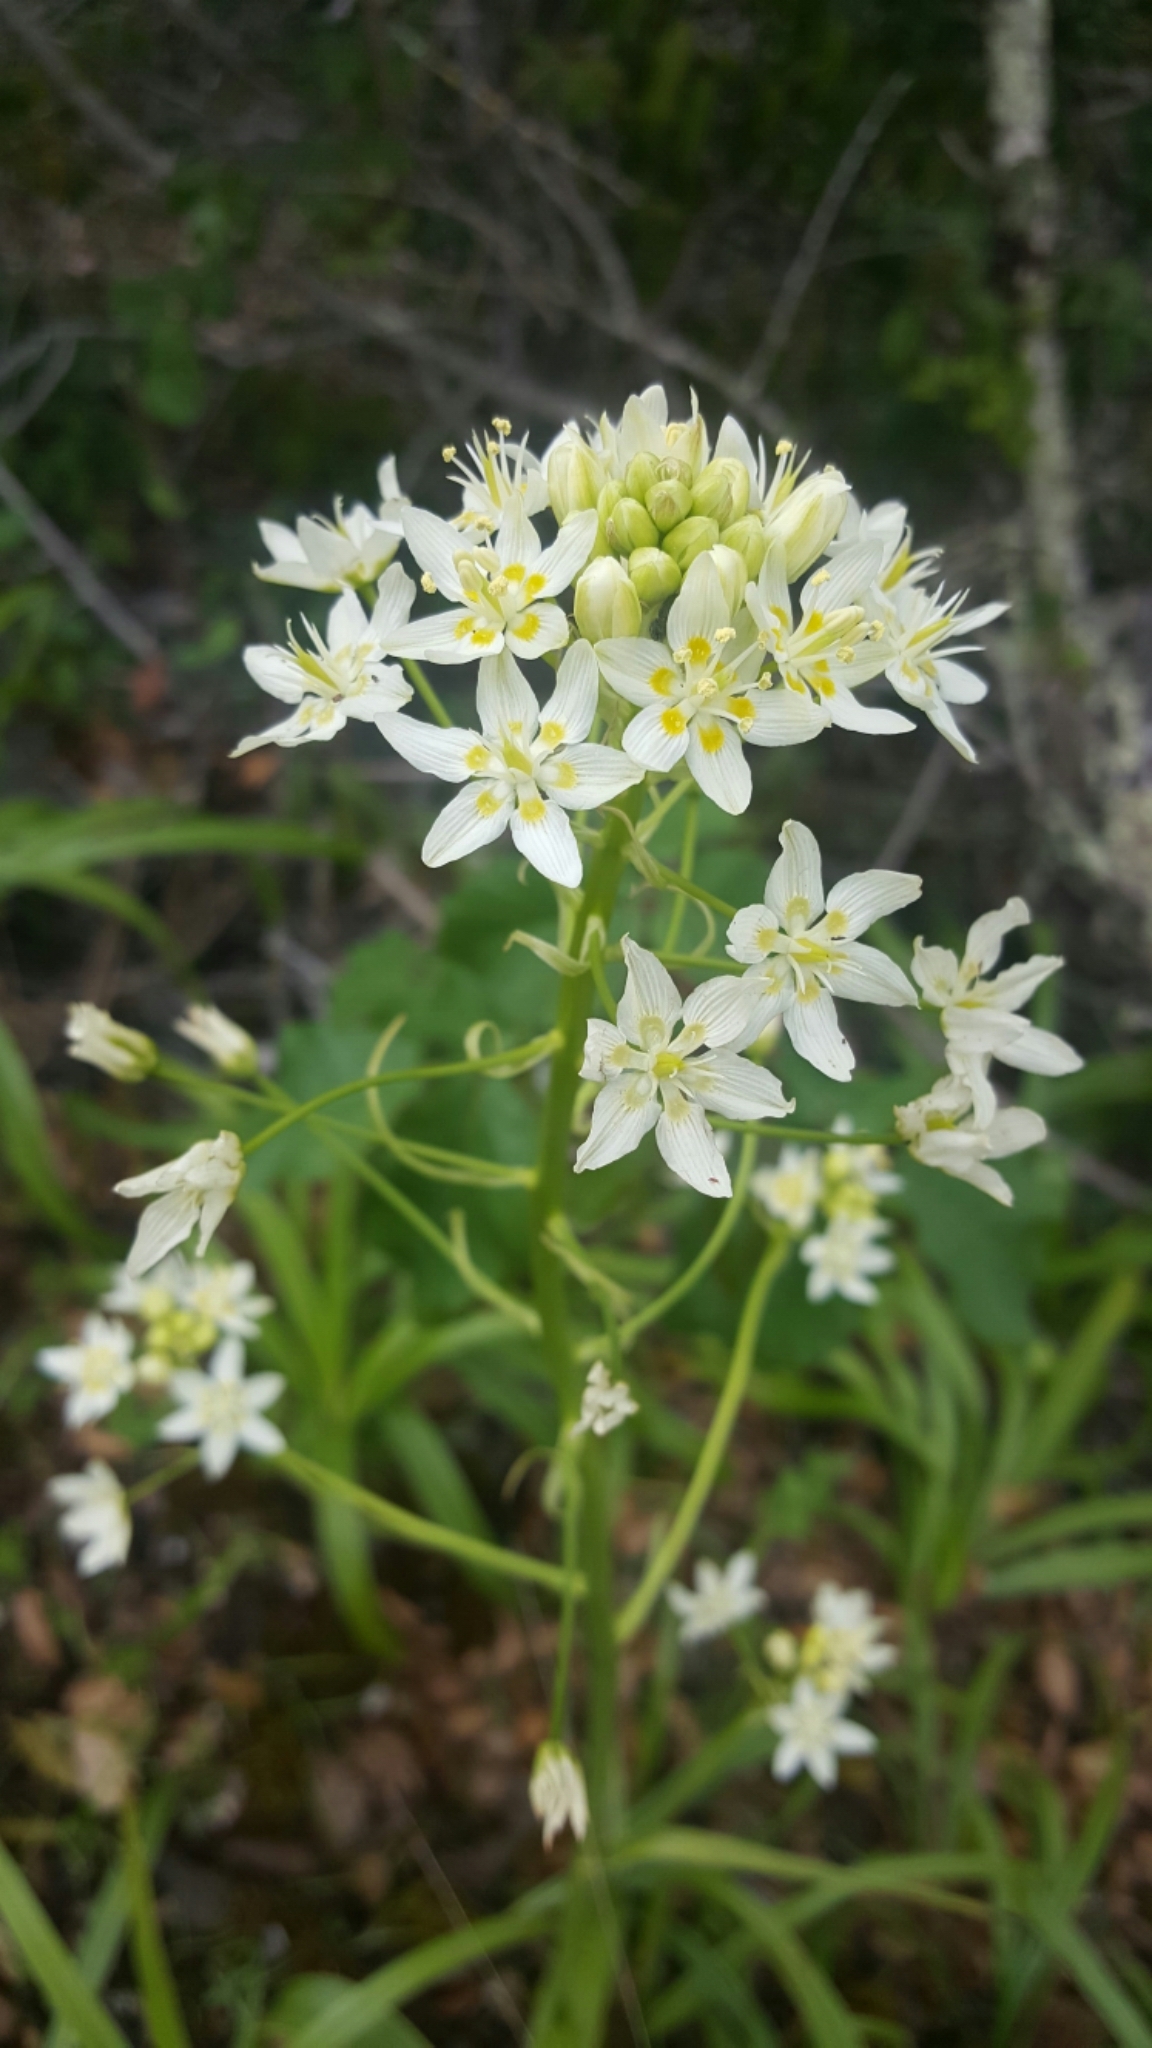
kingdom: Plantae
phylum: Tracheophyta
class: Liliopsida
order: Liliales
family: Melanthiaceae
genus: Toxicoscordion
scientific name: Toxicoscordion fremontii
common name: Fremont's death camas
